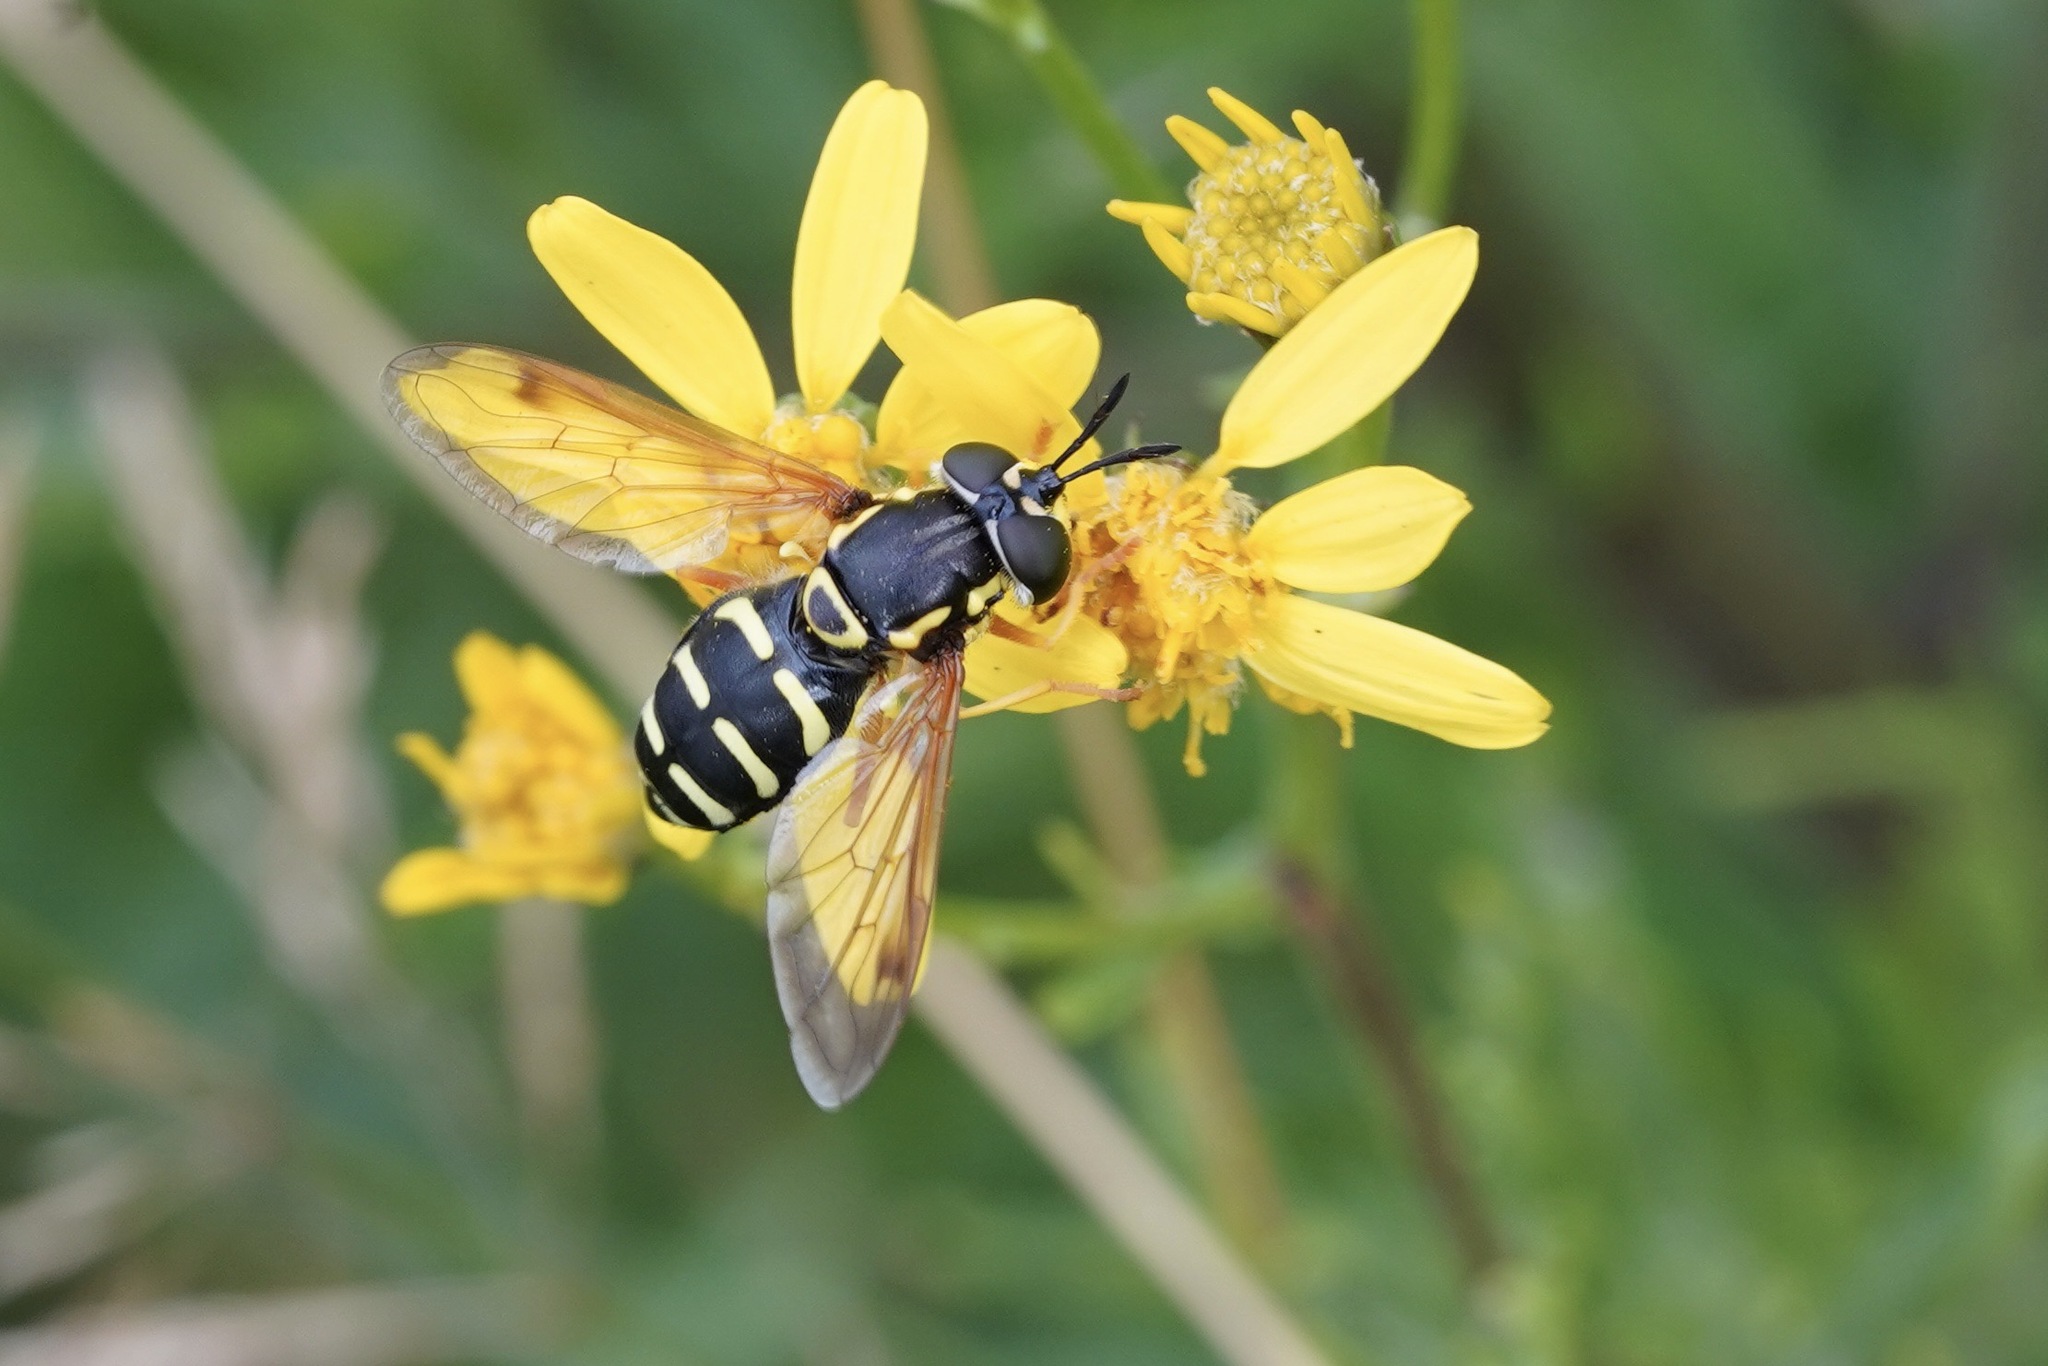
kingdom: Animalia
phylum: Arthropoda
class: Insecta
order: Diptera
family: Syrphidae
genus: Chrysotoxum
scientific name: Chrysotoxum festivum
